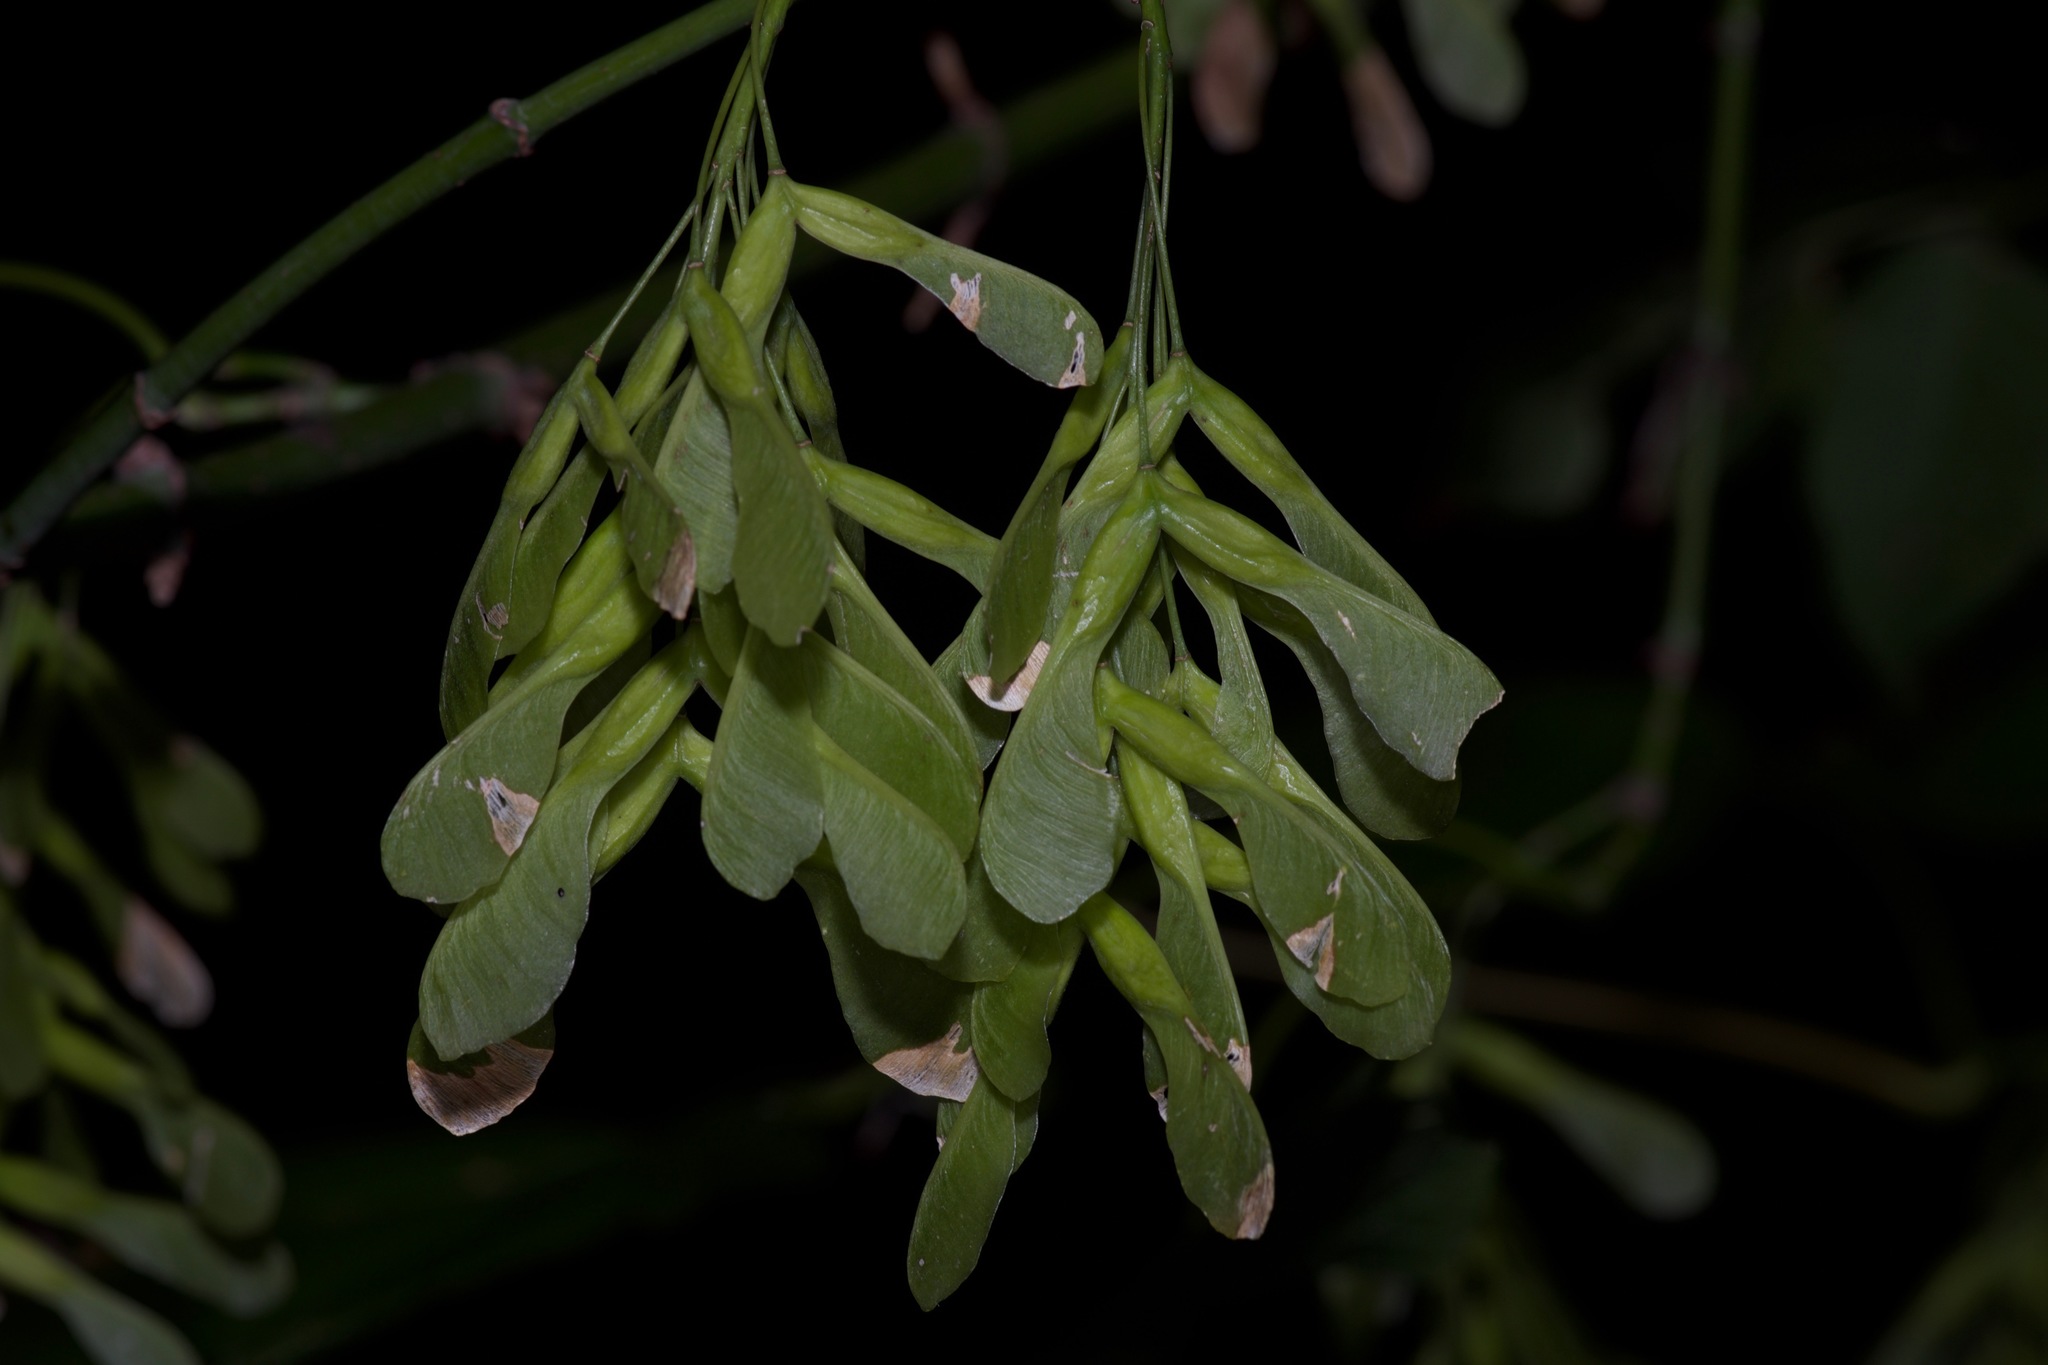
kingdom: Plantae
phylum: Tracheophyta
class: Magnoliopsida
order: Sapindales
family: Sapindaceae
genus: Acer
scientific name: Acer negundo
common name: Ashleaf maple
